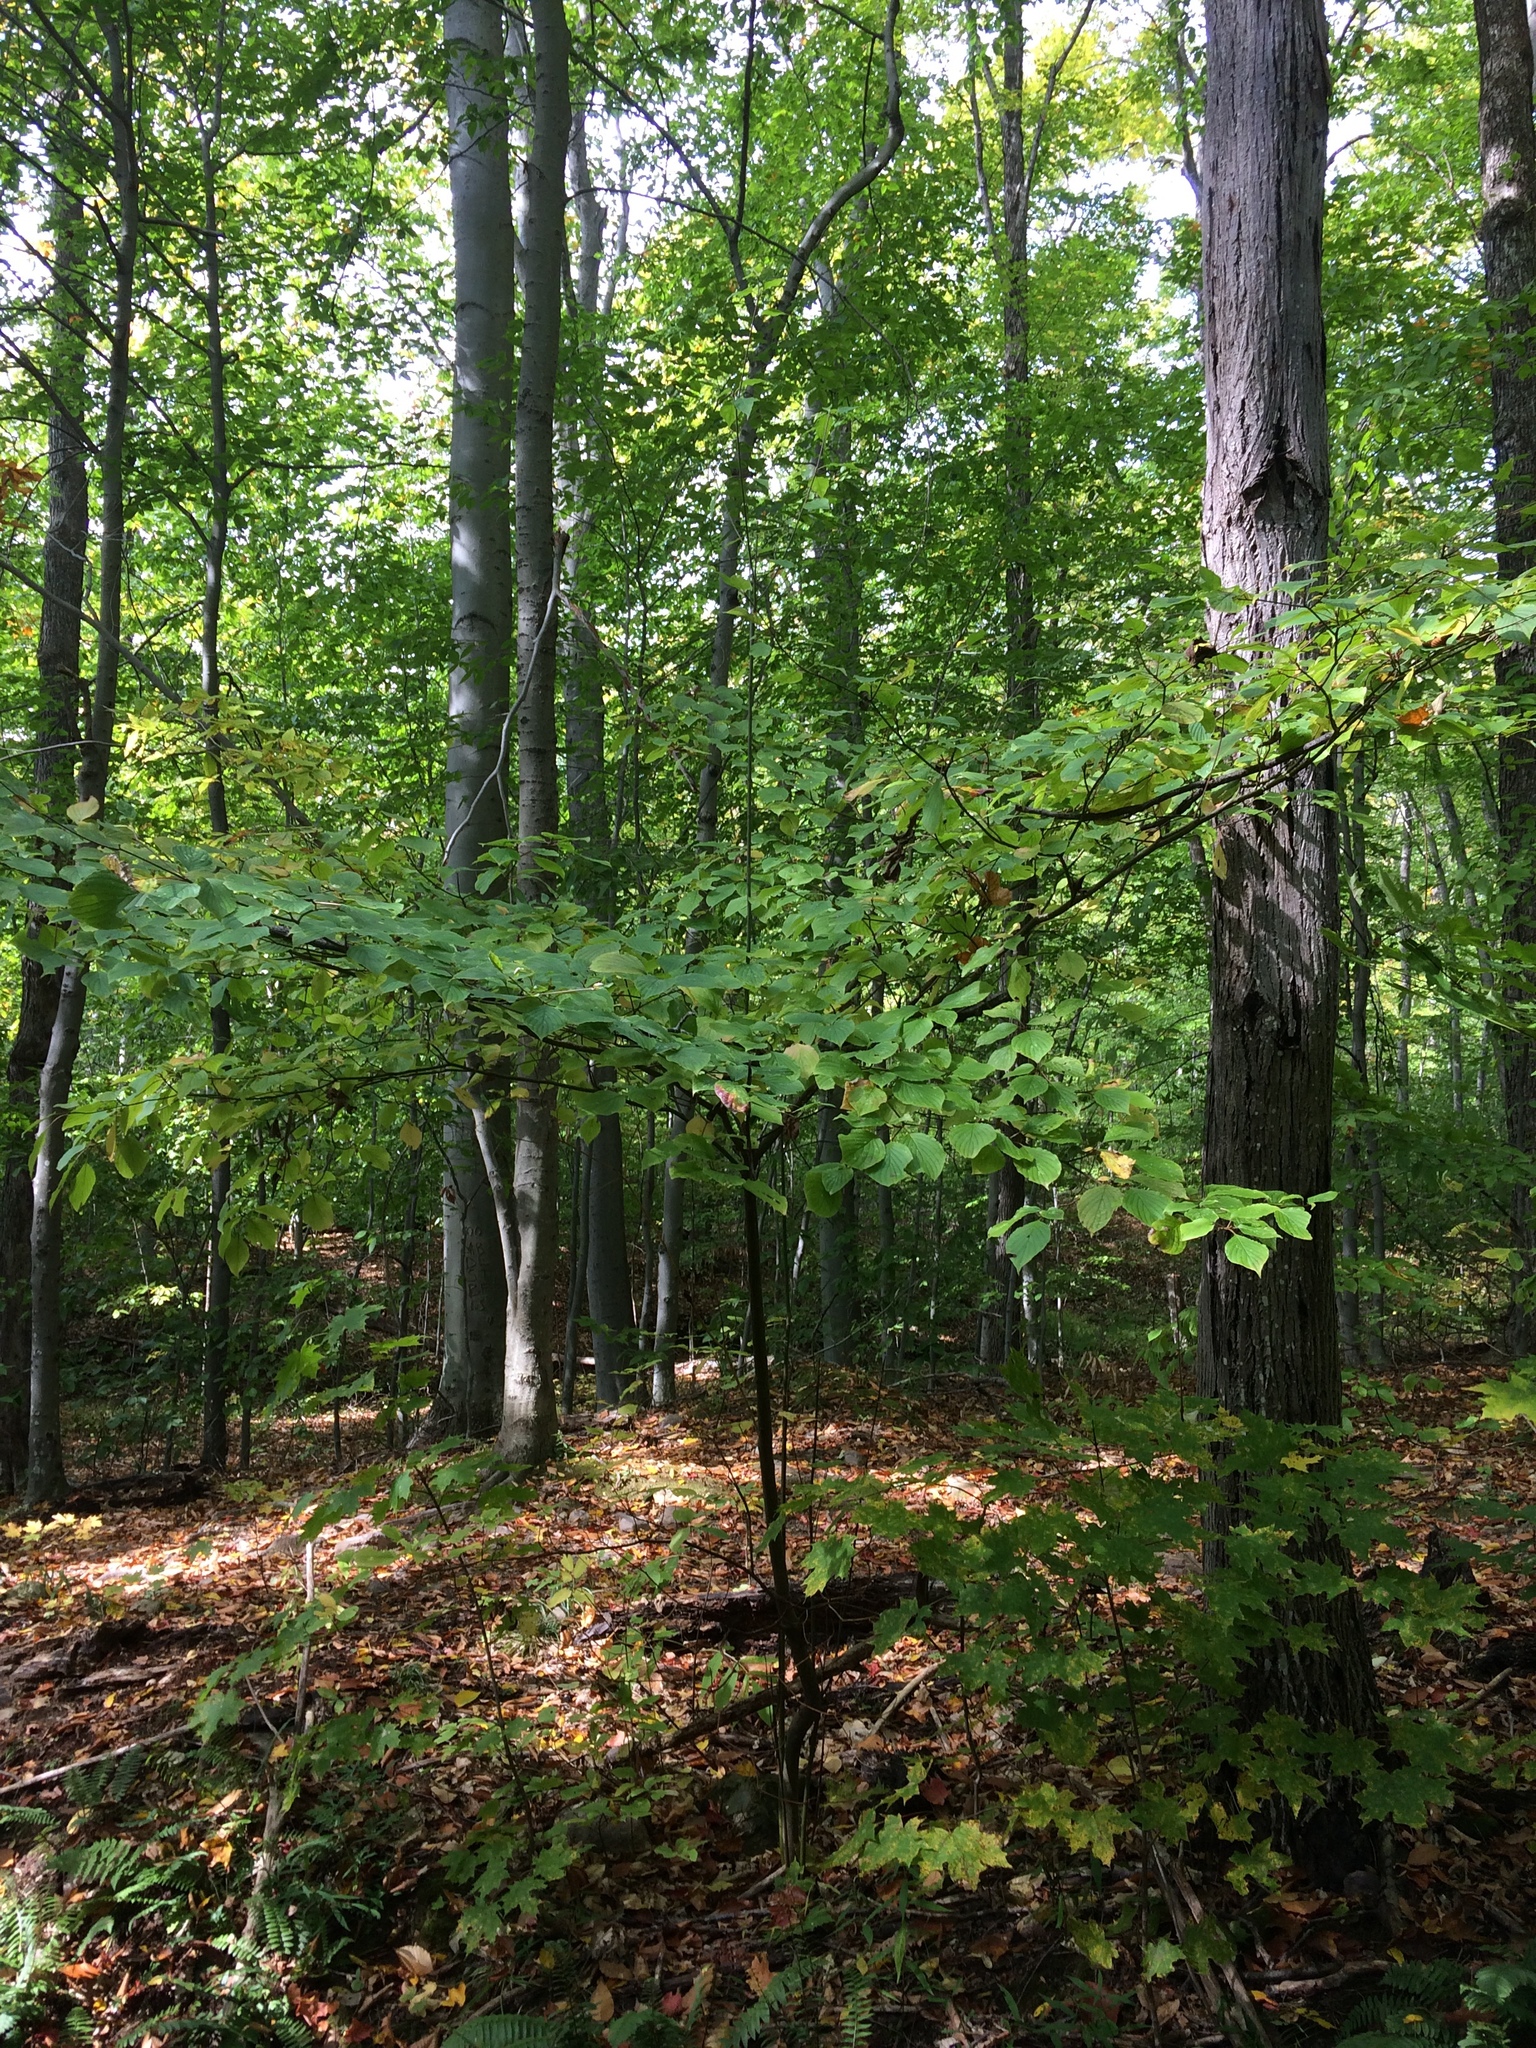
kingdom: Plantae
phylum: Tracheophyta
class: Magnoliopsida
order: Cornales
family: Cornaceae
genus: Cornus
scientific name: Cornus alternifolia
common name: Pagoda dogwood
